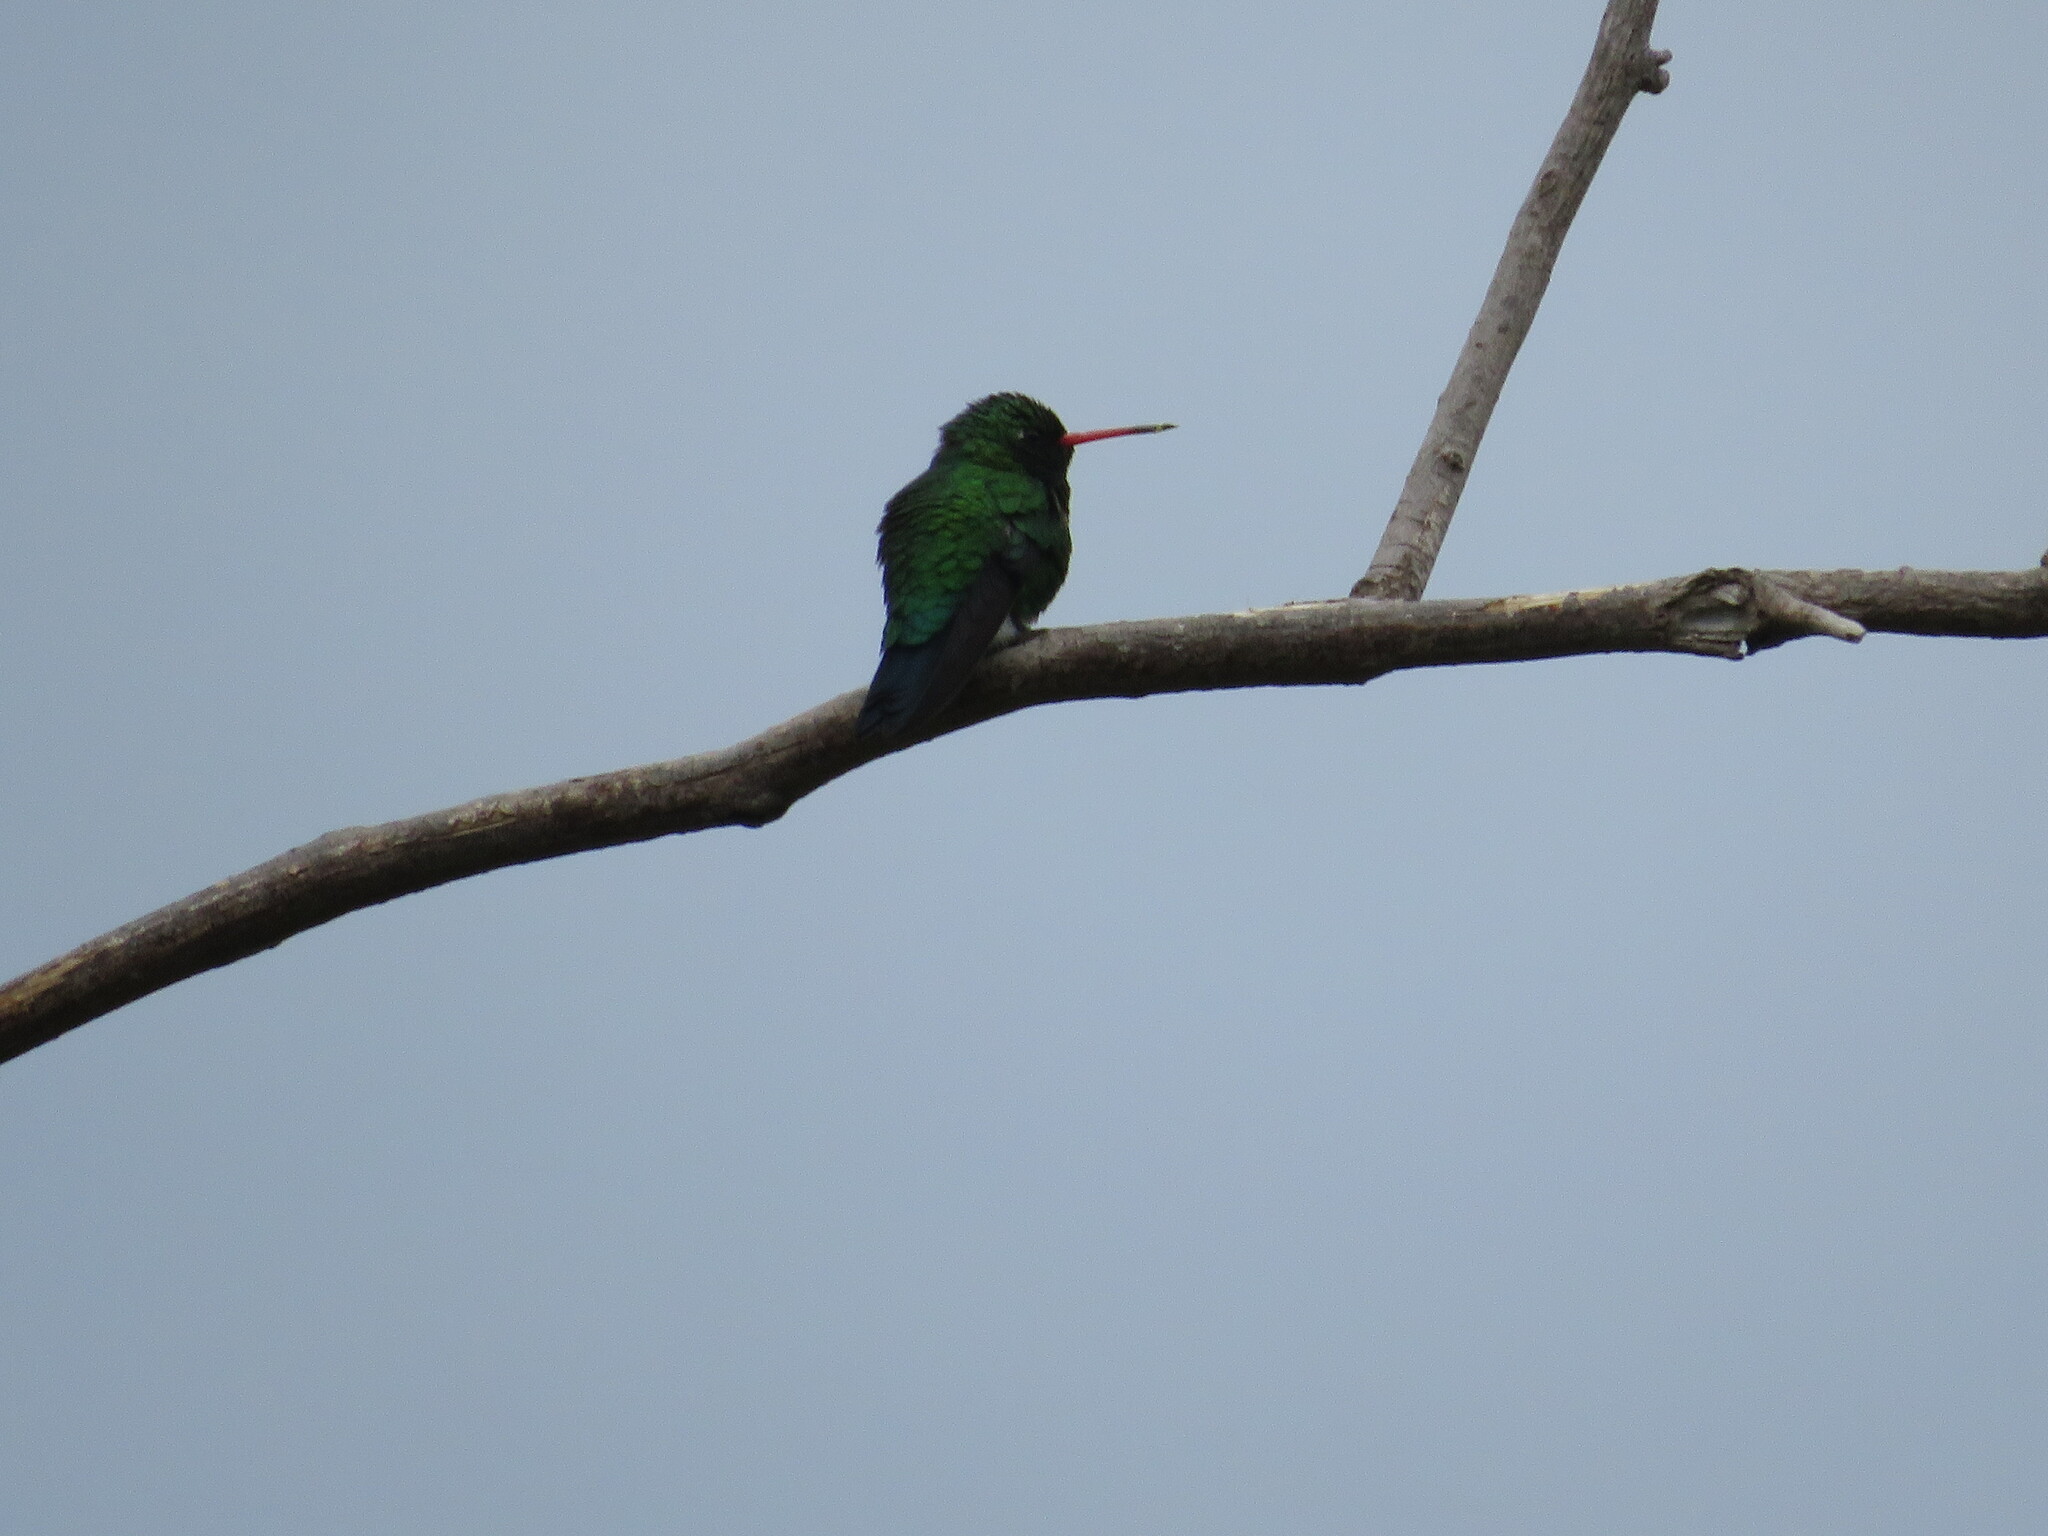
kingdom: Animalia
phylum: Chordata
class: Aves
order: Apodiformes
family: Trochilidae
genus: Chlorostilbon
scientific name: Chlorostilbon lucidus
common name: Glittering-bellied emerald
